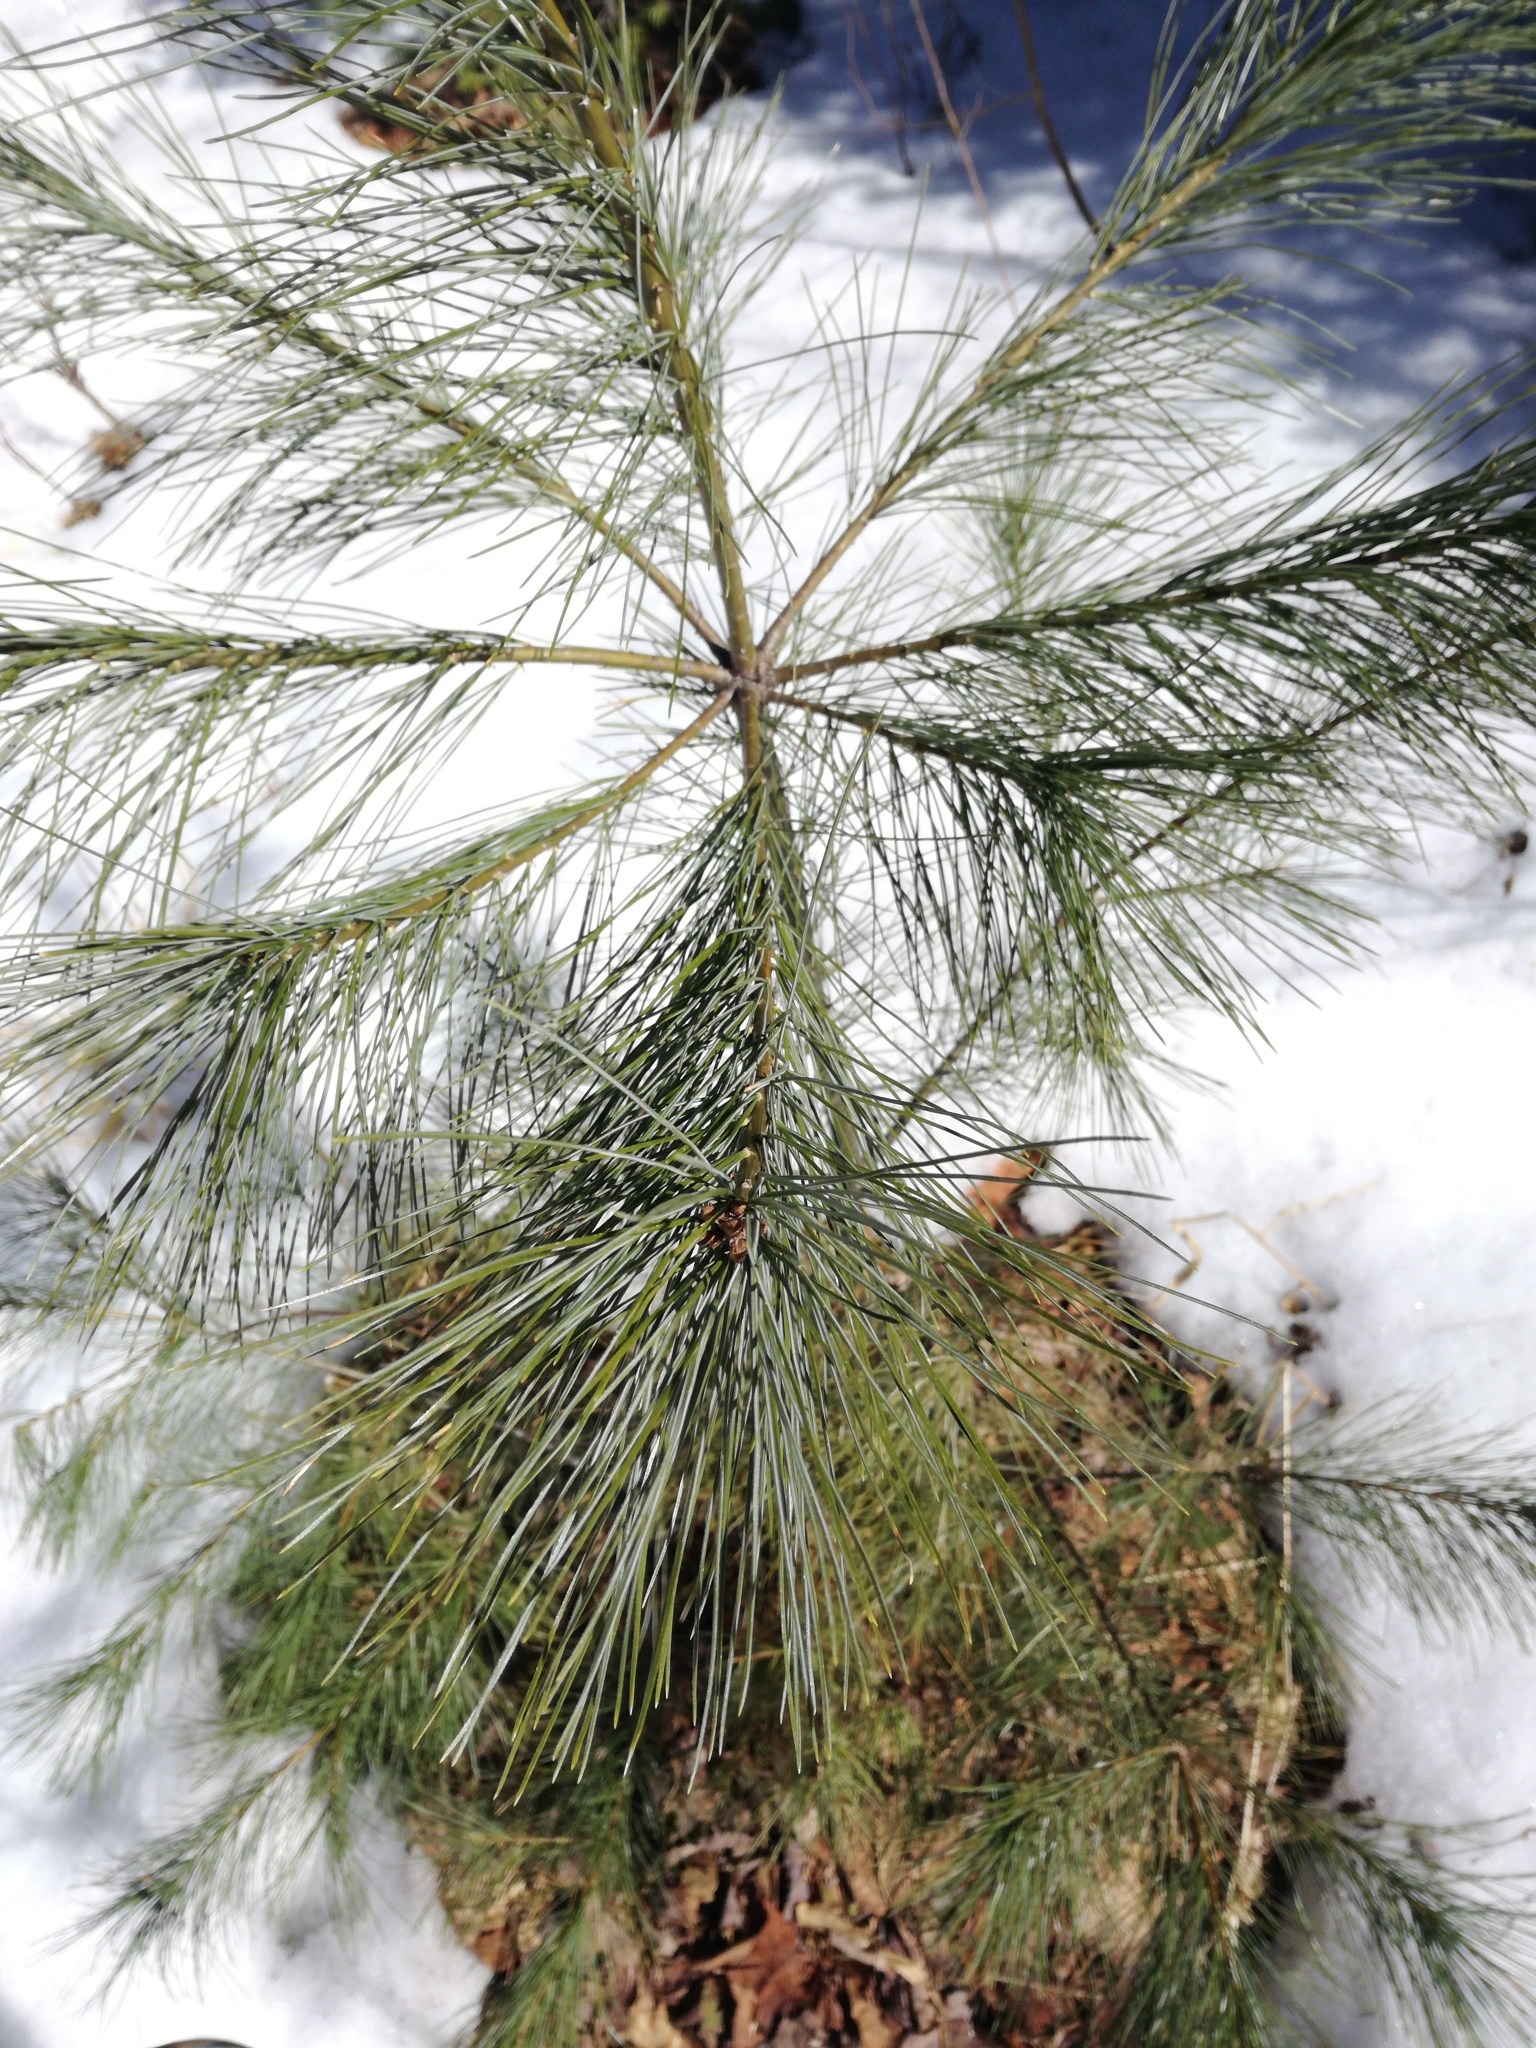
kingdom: Plantae
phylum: Tracheophyta
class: Pinopsida
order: Pinales
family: Pinaceae
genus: Pinus
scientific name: Pinus strobus
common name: Weymouth pine
